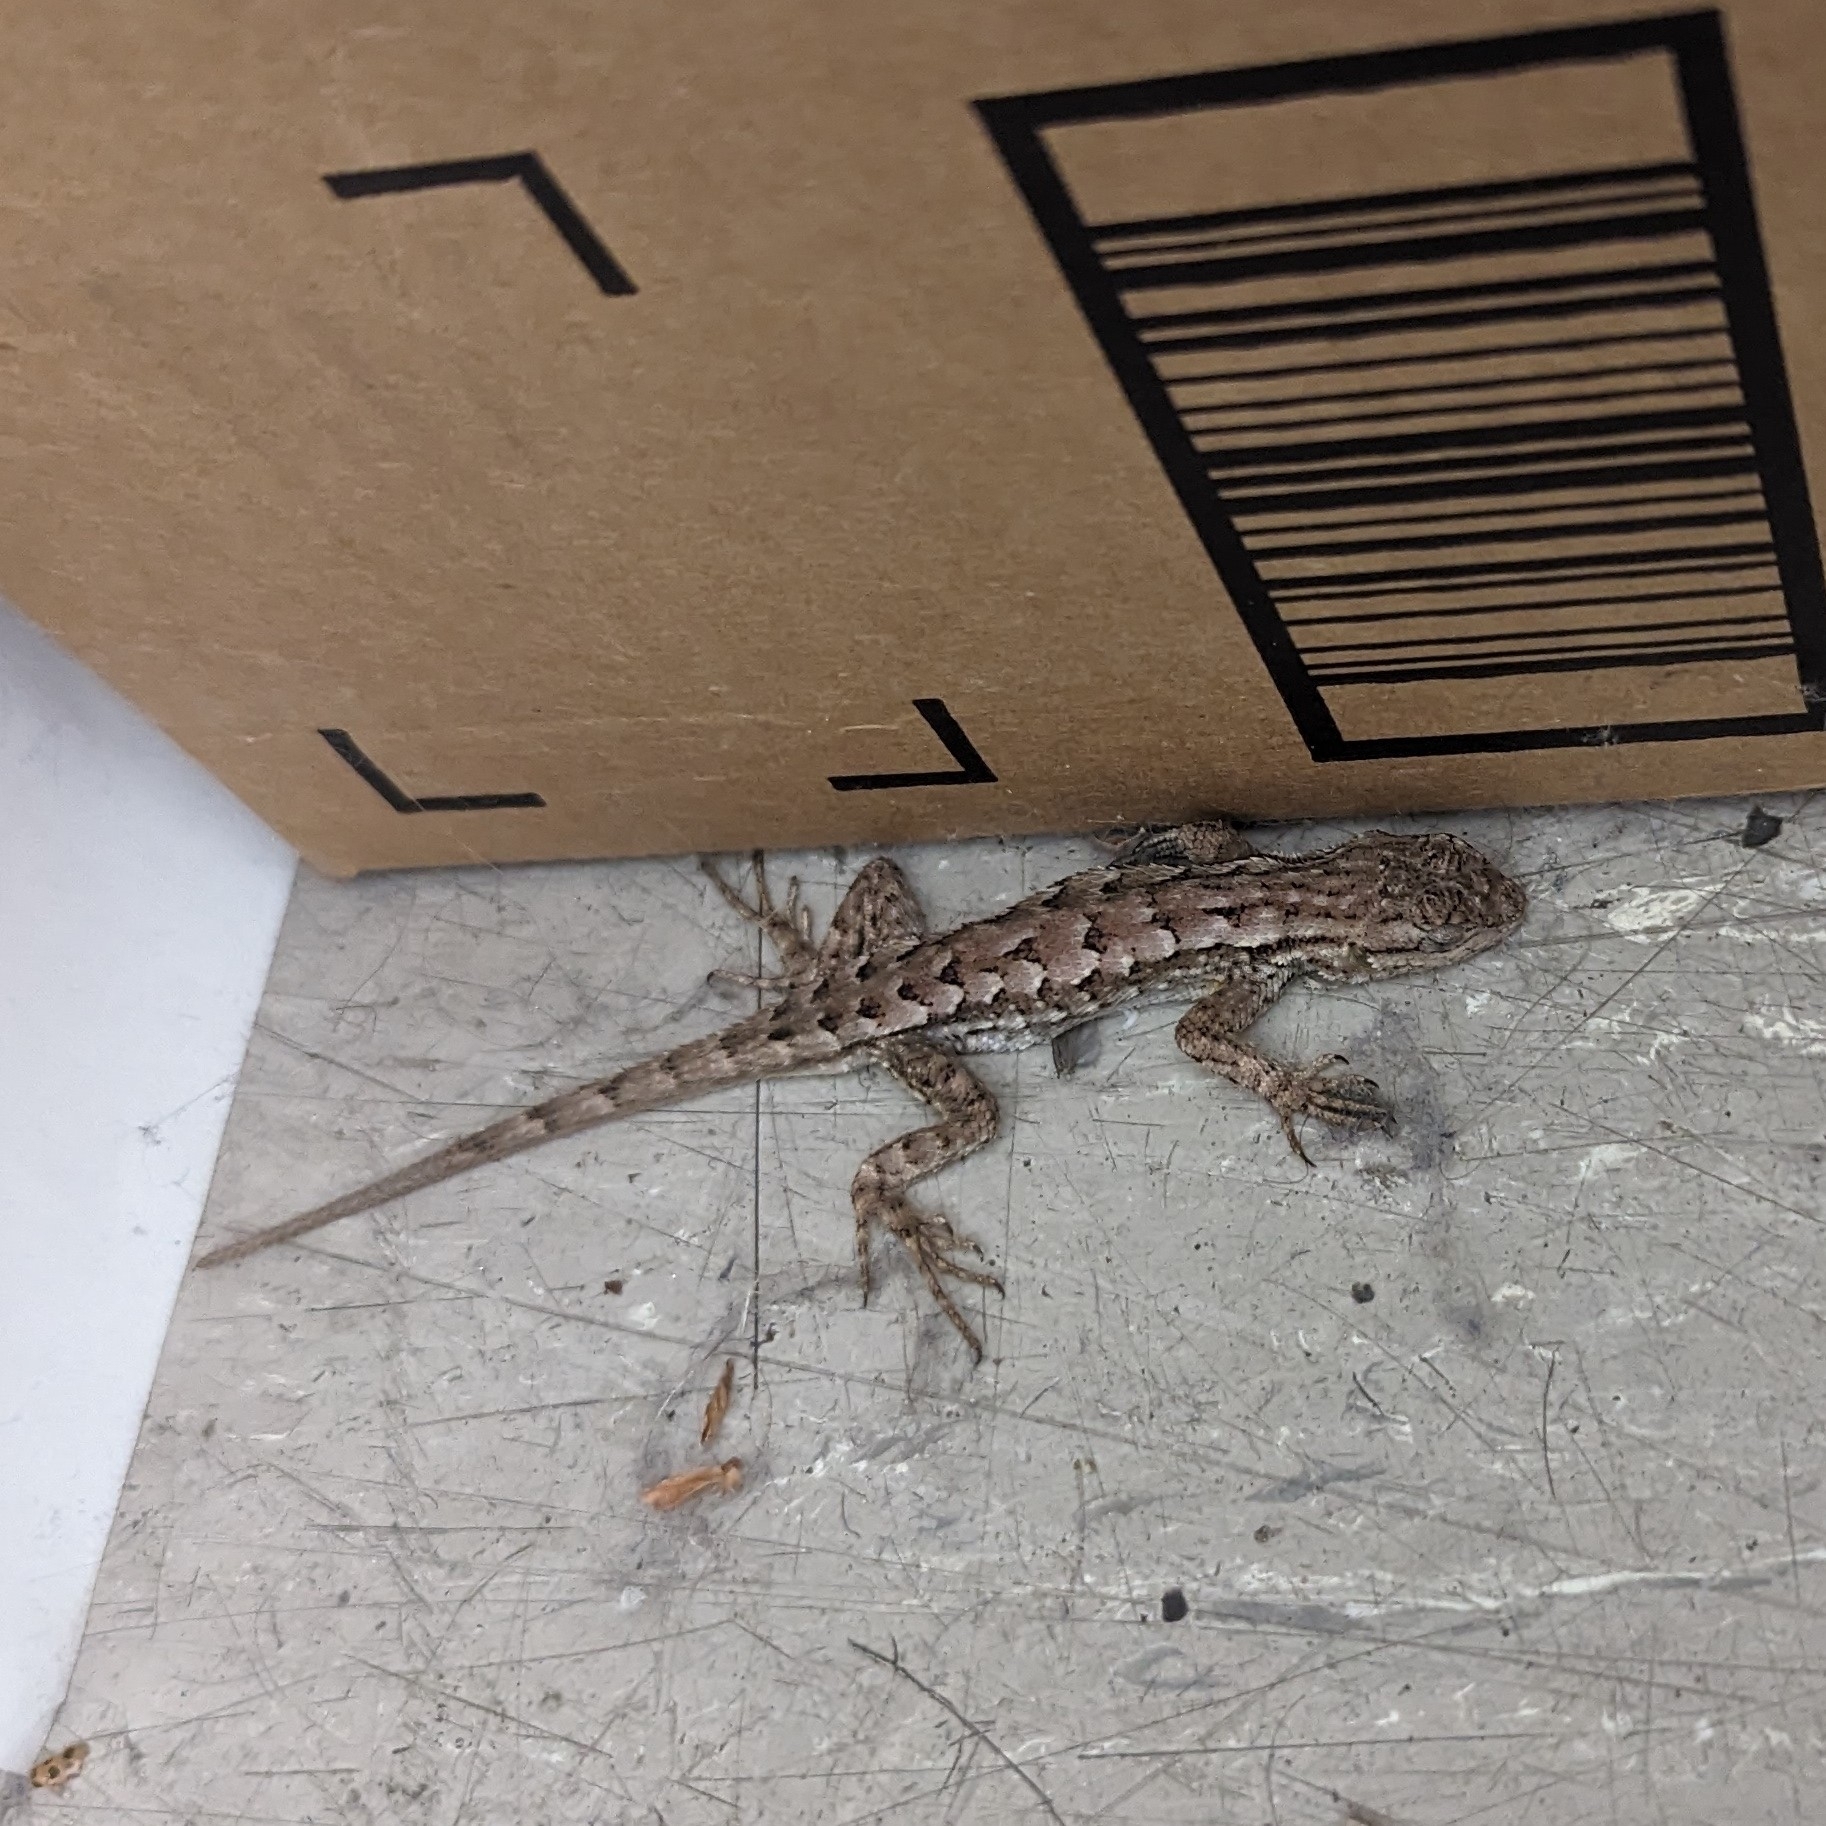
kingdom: Animalia
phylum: Chordata
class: Squamata
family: Phrynosomatidae
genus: Sceloporus
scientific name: Sceloporus occidentalis
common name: Western fence lizard
